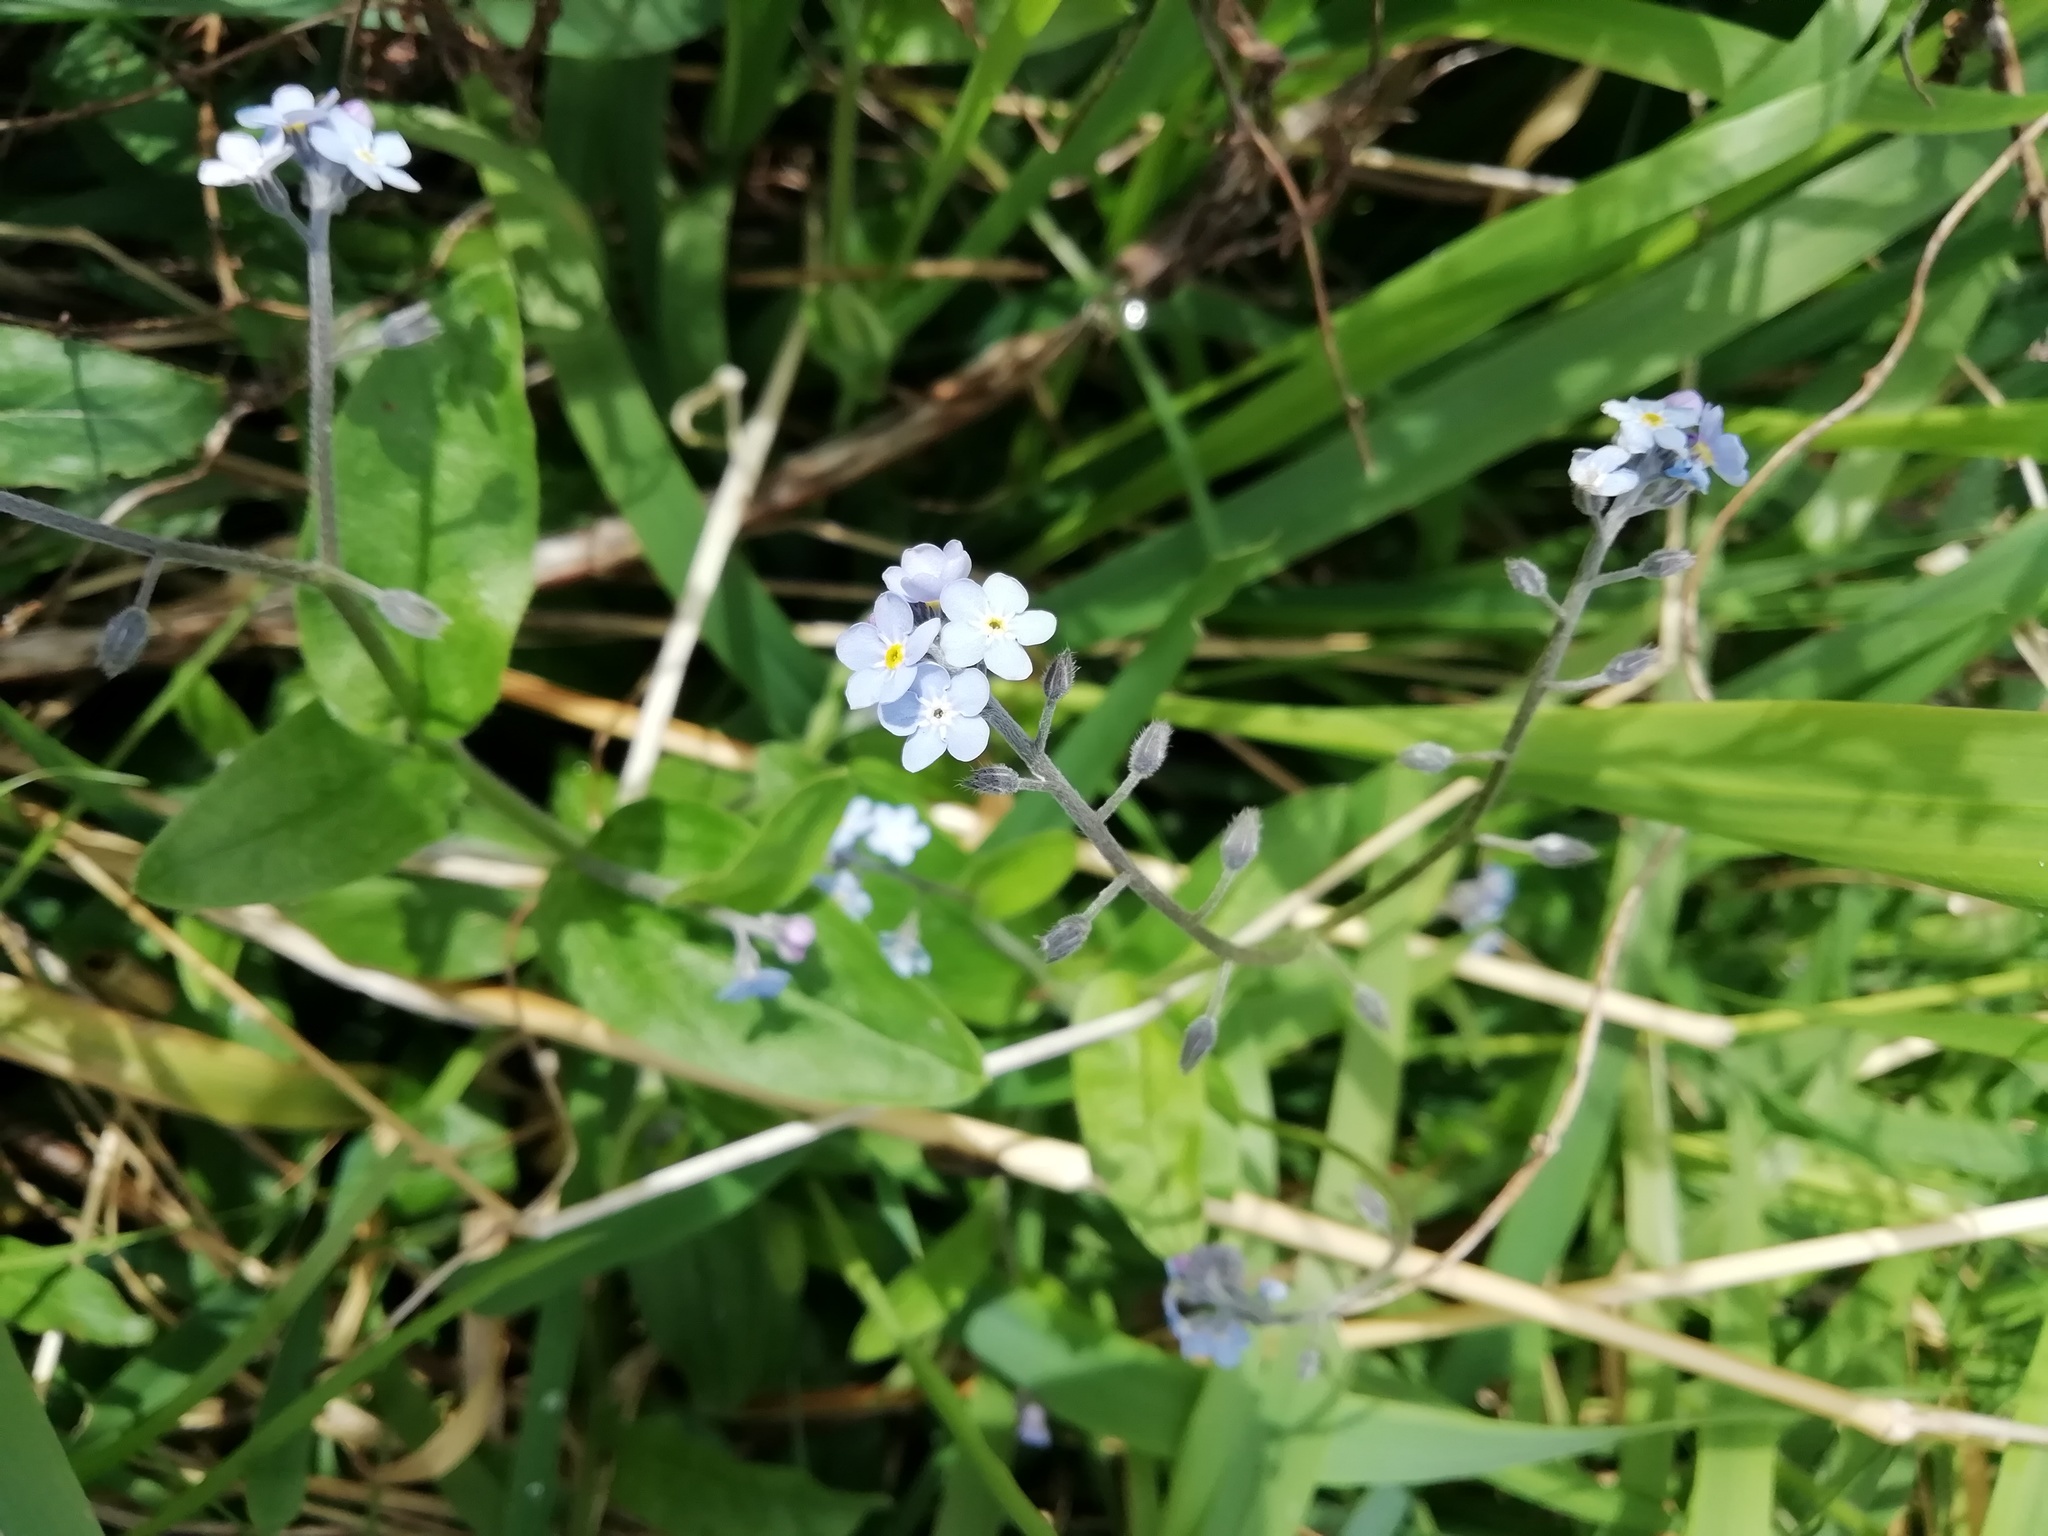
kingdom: Plantae
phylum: Tracheophyta
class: Magnoliopsida
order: Boraginales
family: Boraginaceae
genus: Myosotis
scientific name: Myosotis sylvatica
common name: Wood forget-me-not
